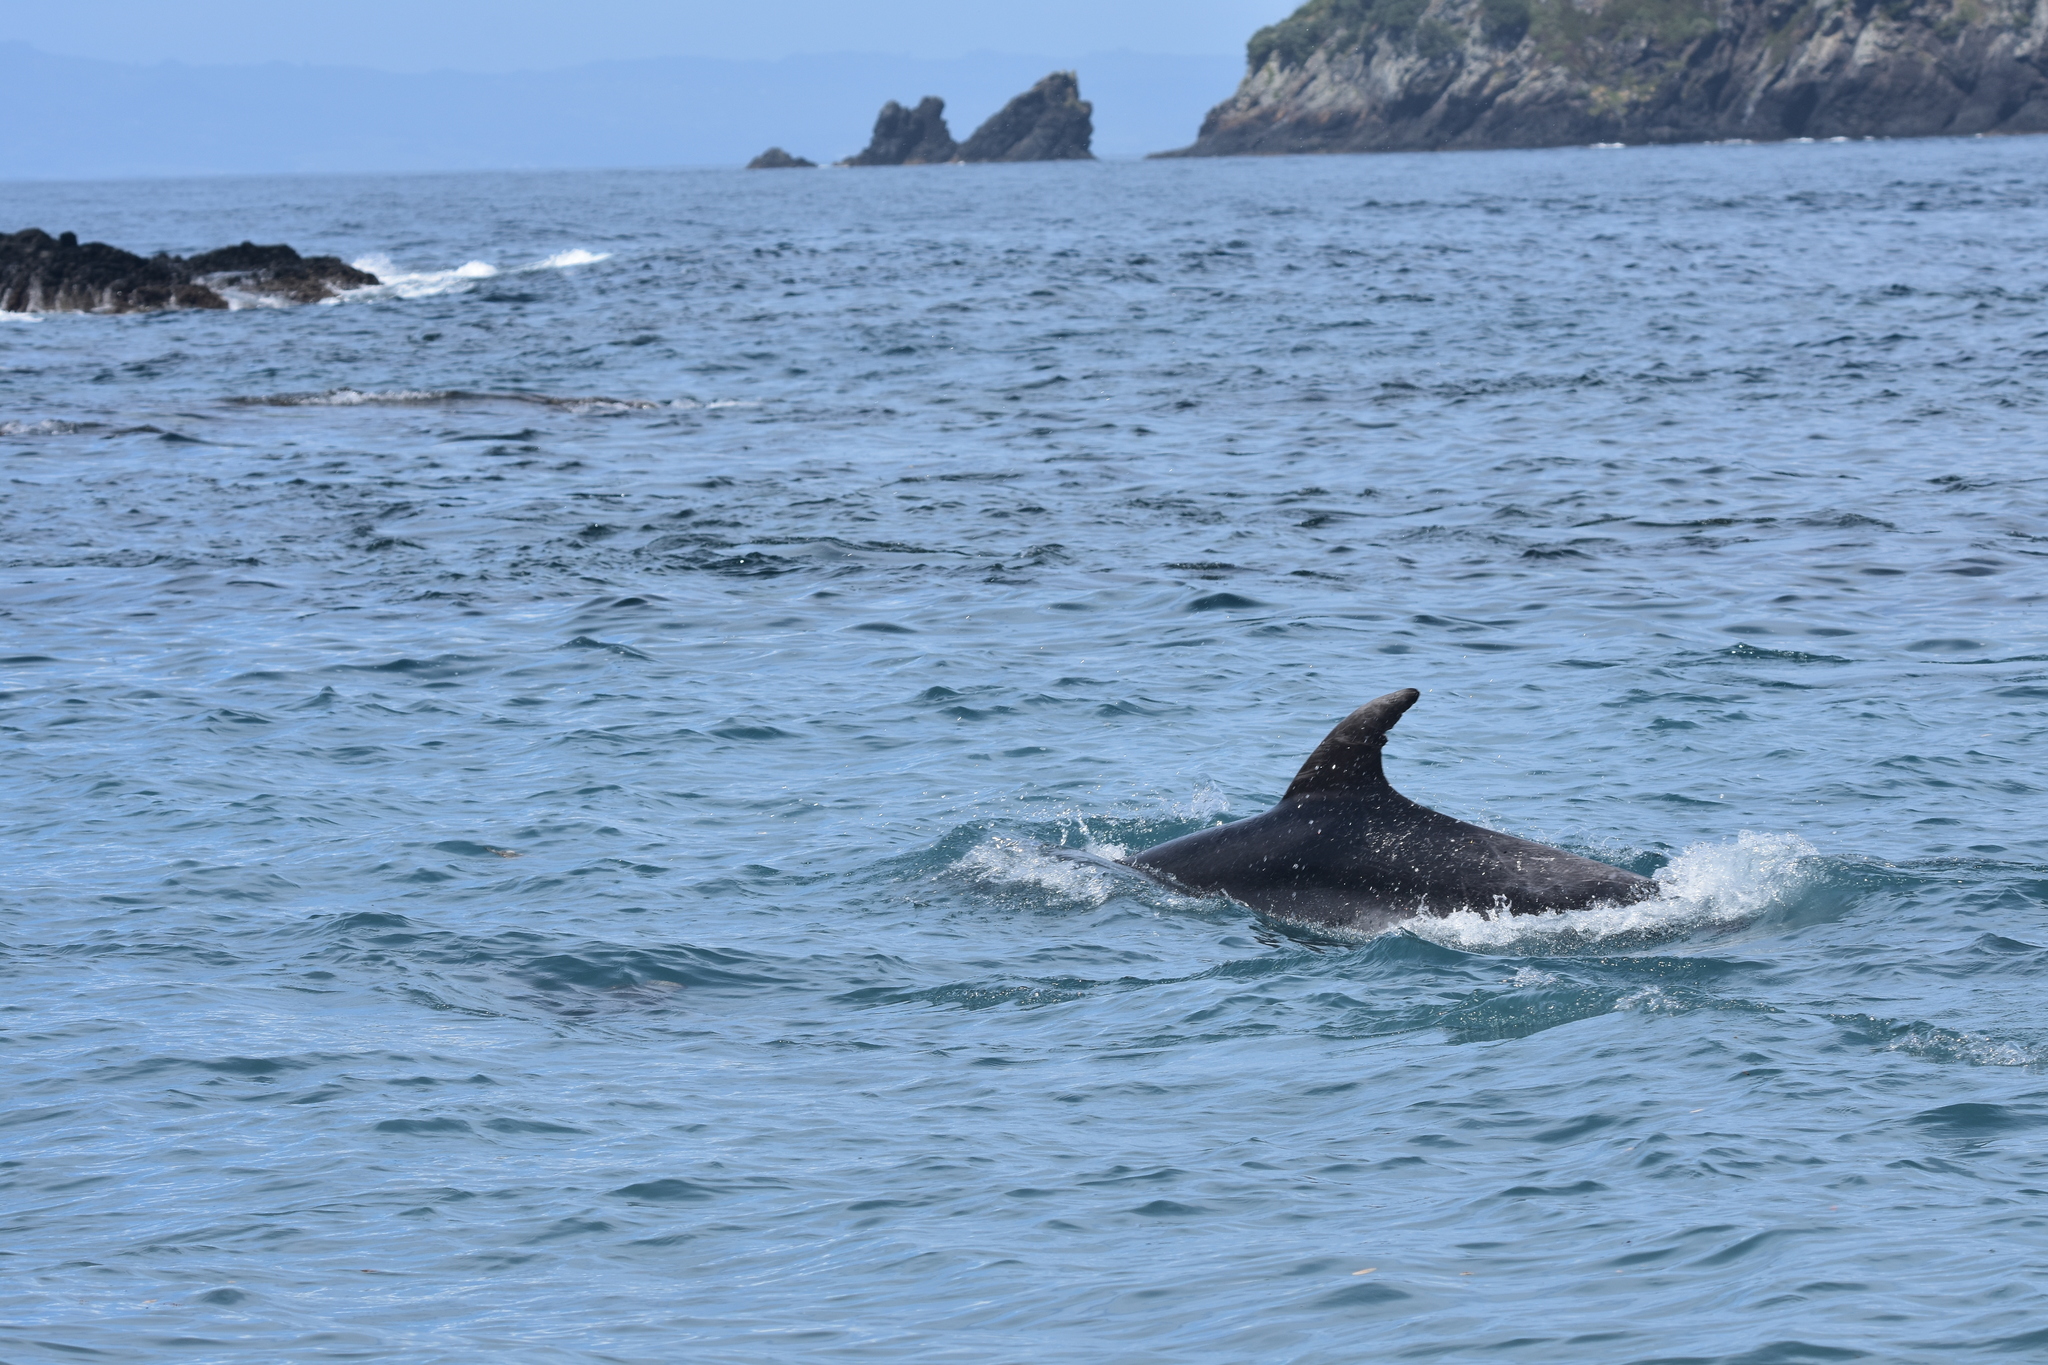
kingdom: Animalia
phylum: Chordata
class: Mammalia
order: Cetacea
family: Delphinidae
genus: Tursiops
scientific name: Tursiops truncatus
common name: Bottlenose dolphin
